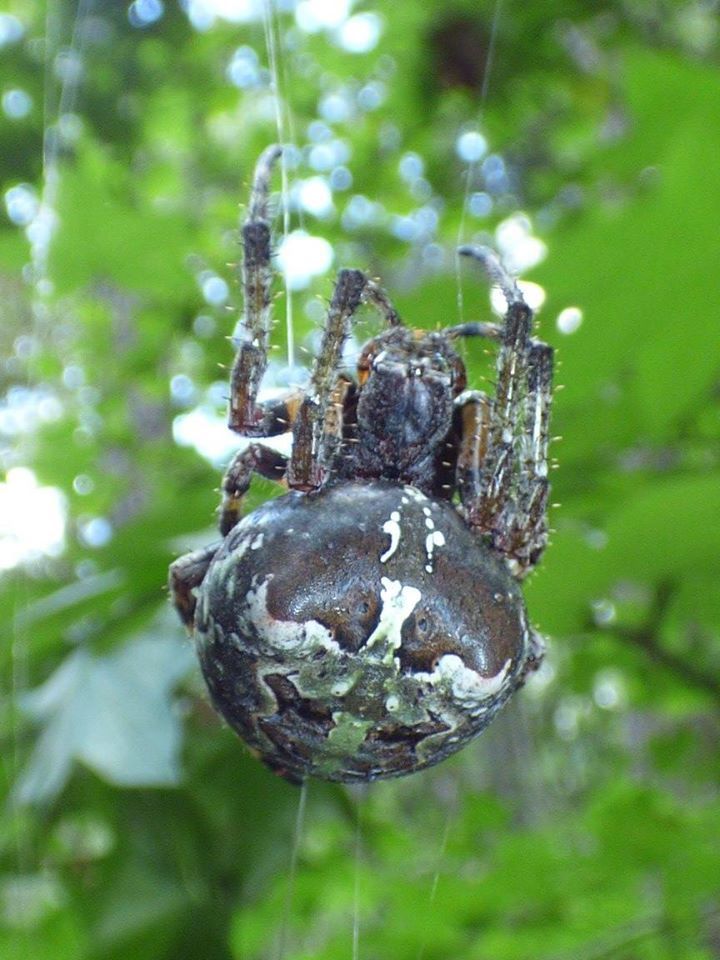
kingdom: Animalia
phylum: Arthropoda
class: Arachnida
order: Araneae
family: Araneidae
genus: Araneus
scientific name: Araneus bicentenarius
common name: Giant lichen orbweaver
